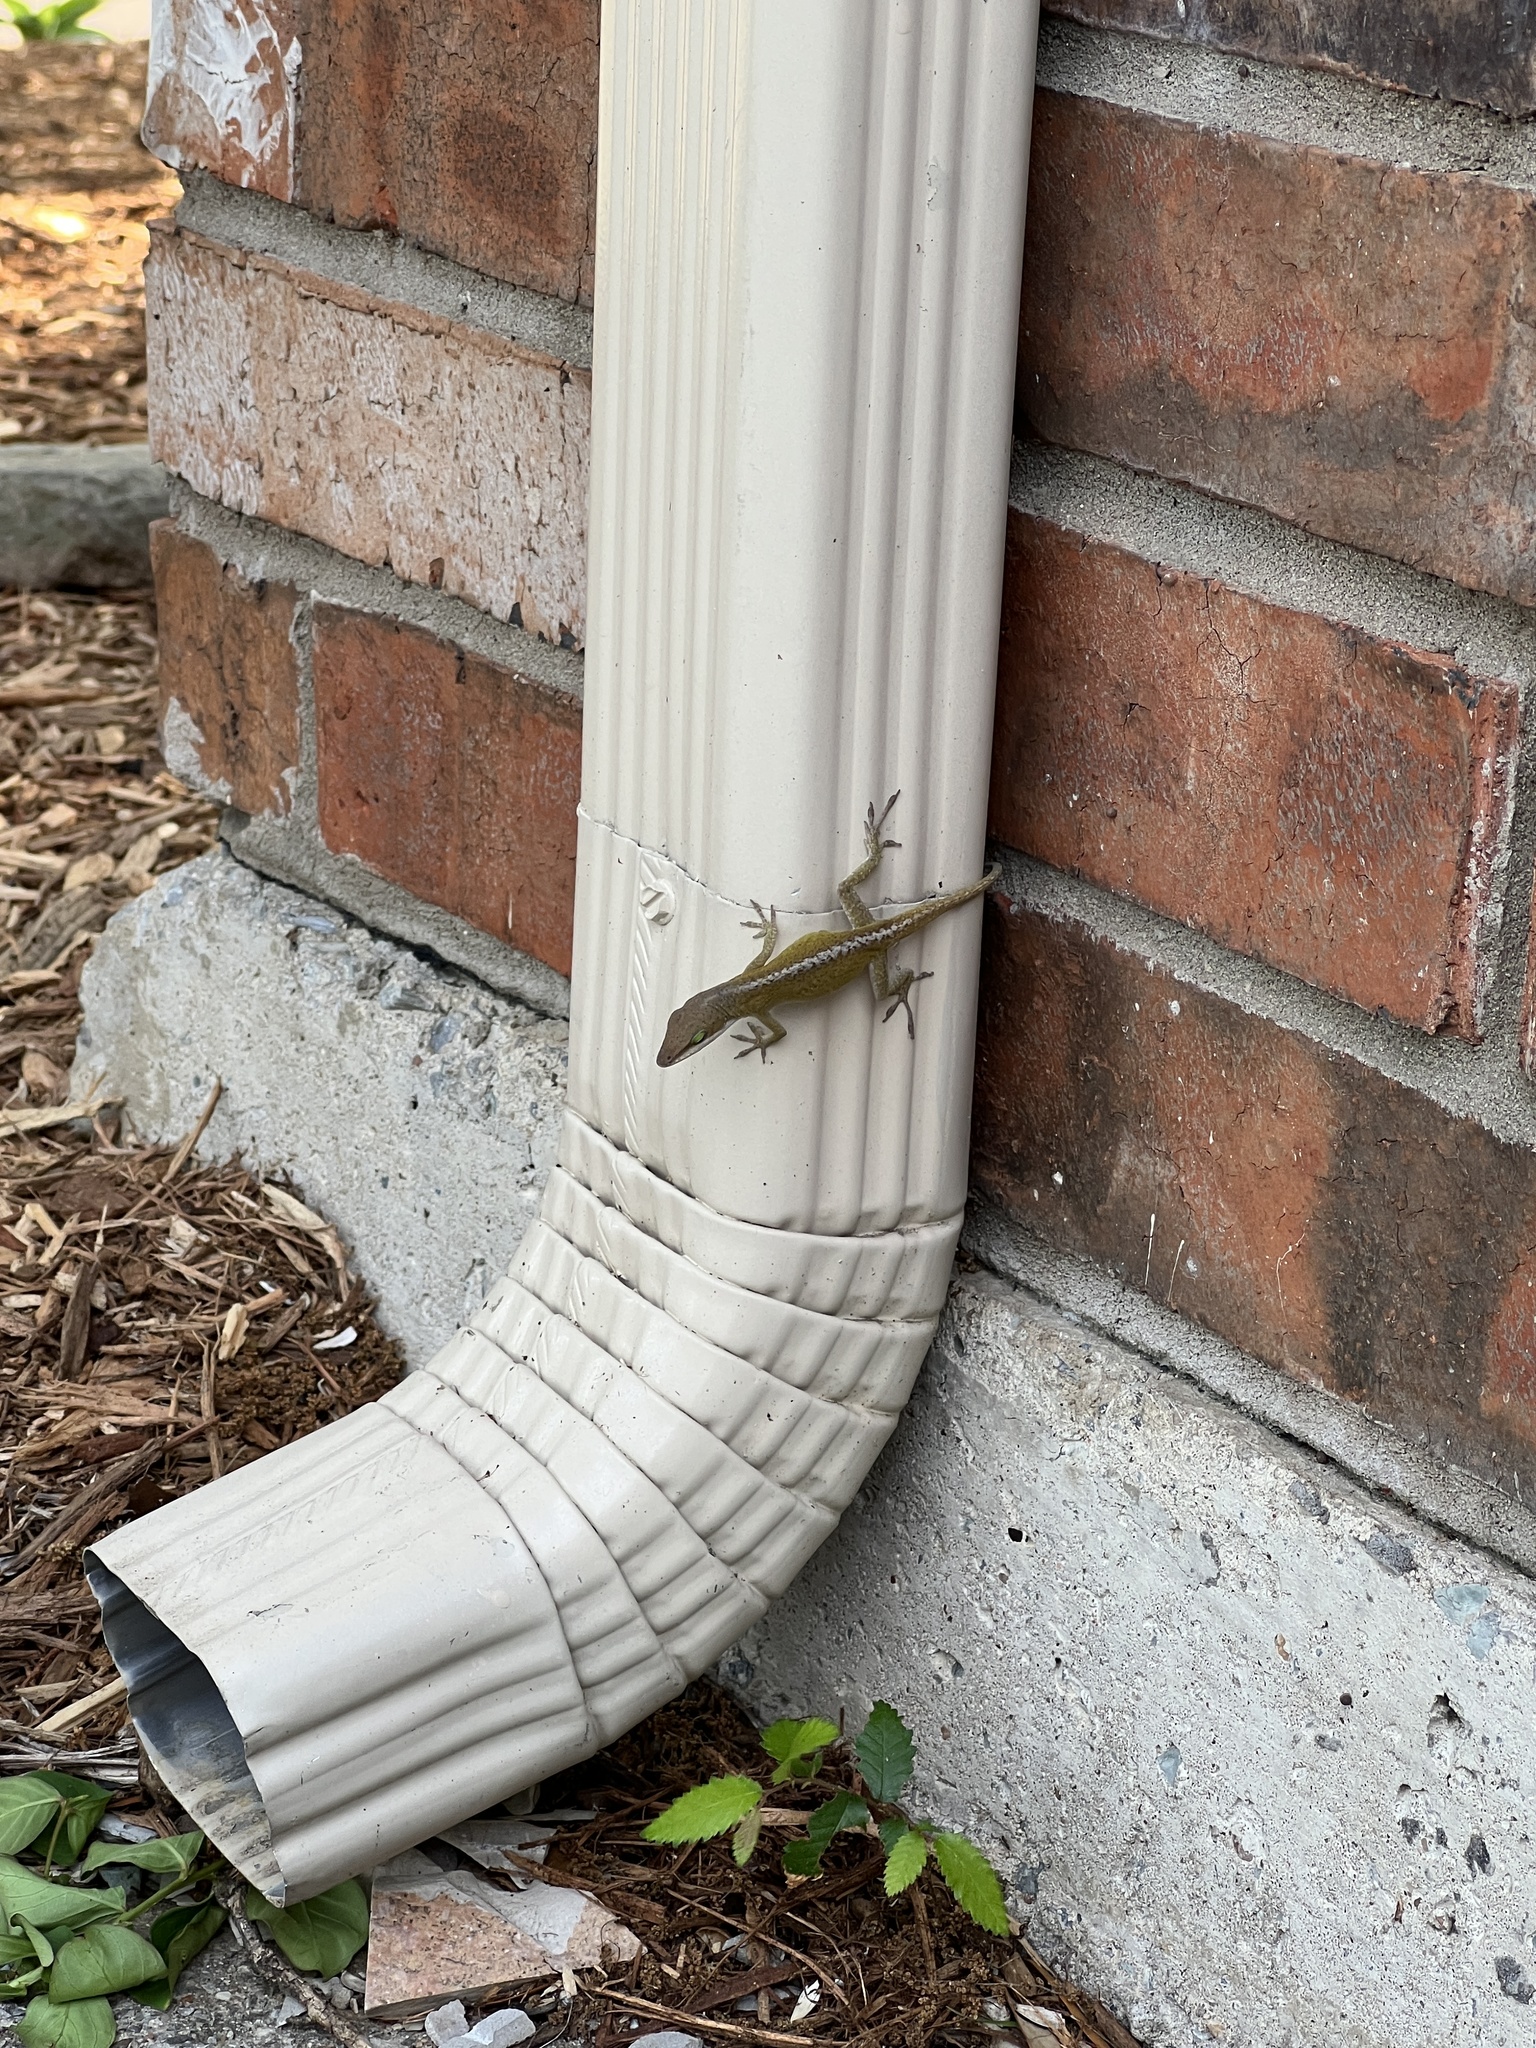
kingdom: Animalia
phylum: Chordata
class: Squamata
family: Dactyloidae
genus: Anolis
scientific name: Anolis carolinensis
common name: Green anole
